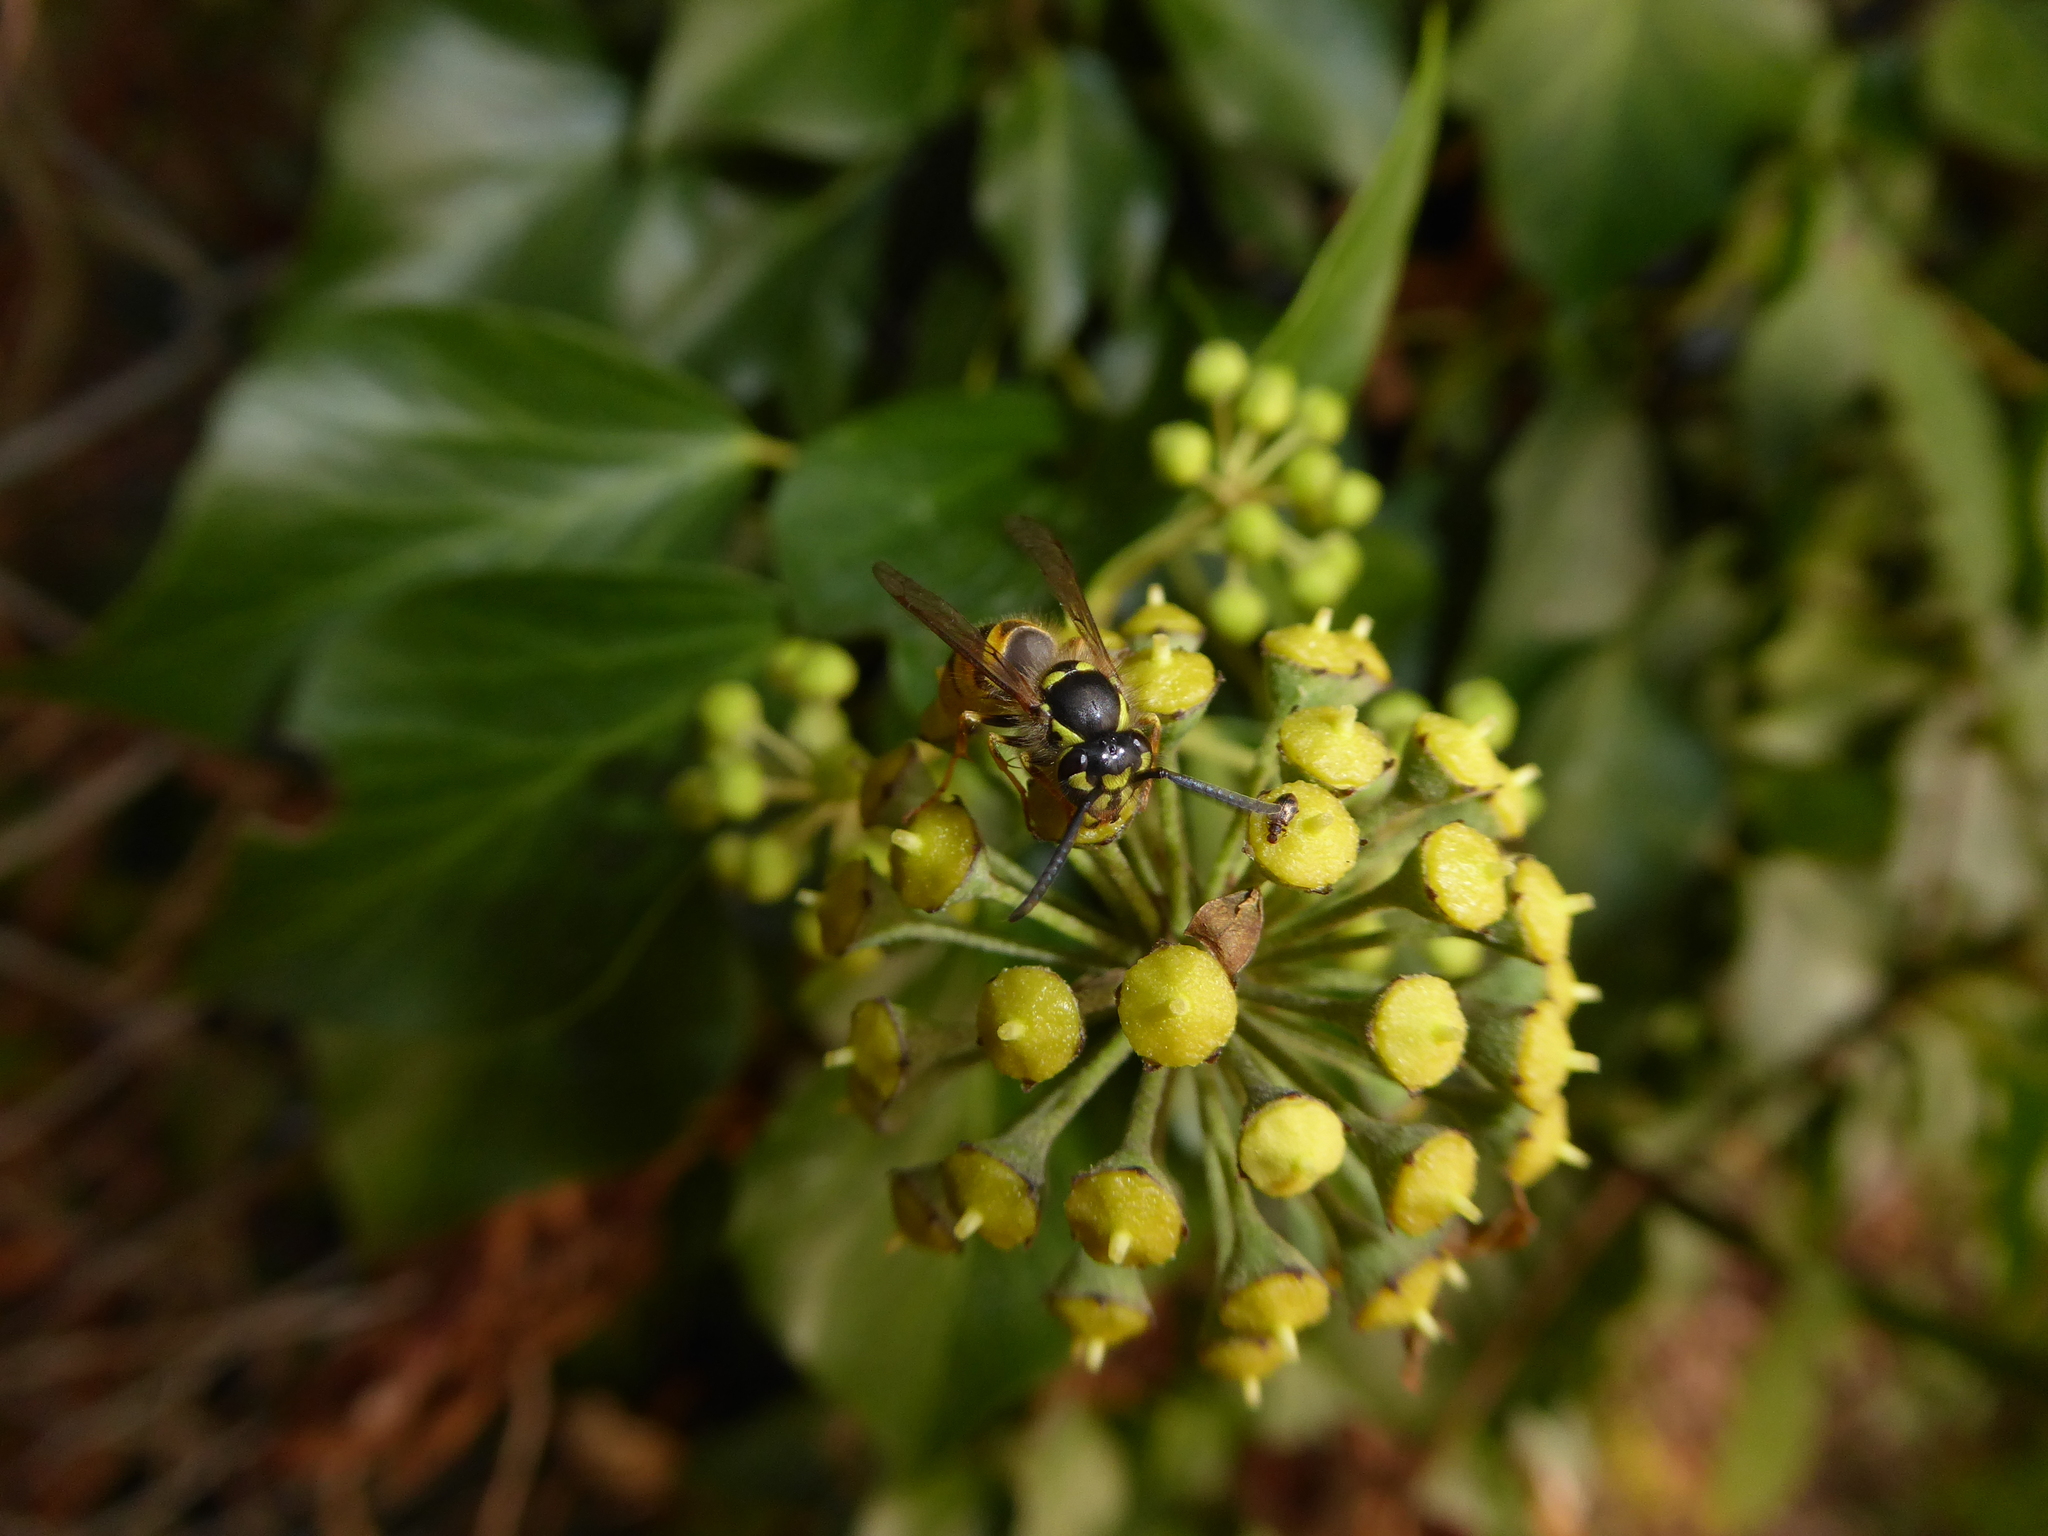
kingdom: Animalia
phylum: Arthropoda
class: Insecta
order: Hymenoptera
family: Vespidae
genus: Vespula
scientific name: Vespula vulgaris
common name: Common wasp
